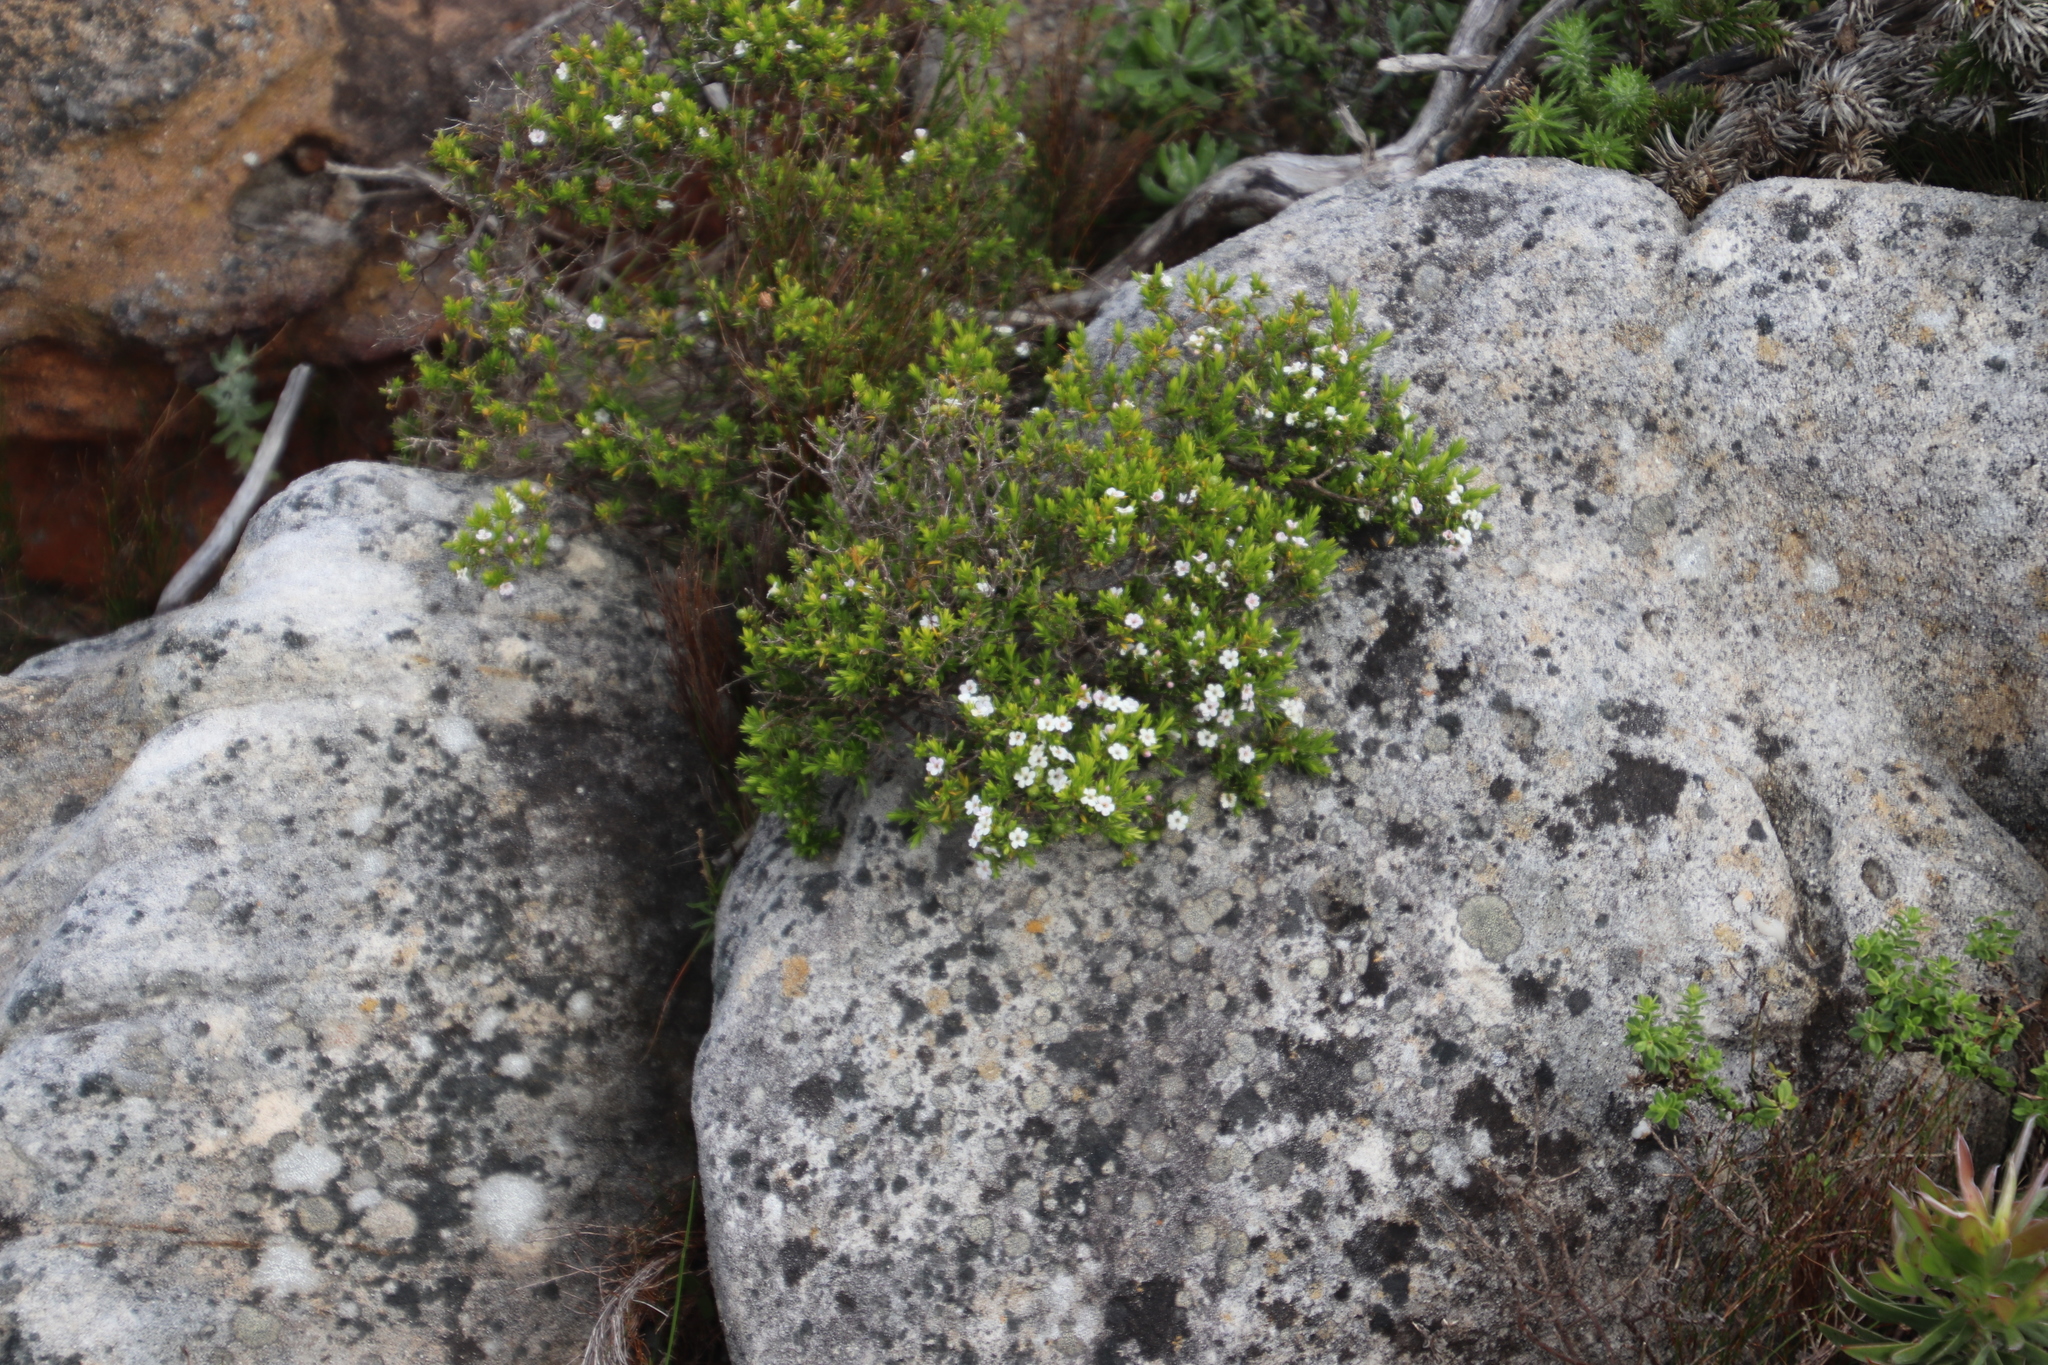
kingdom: Plantae
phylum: Tracheophyta
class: Magnoliopsida
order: Sapindales
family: Rutaceae
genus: Coleonema
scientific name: Coleonema album
